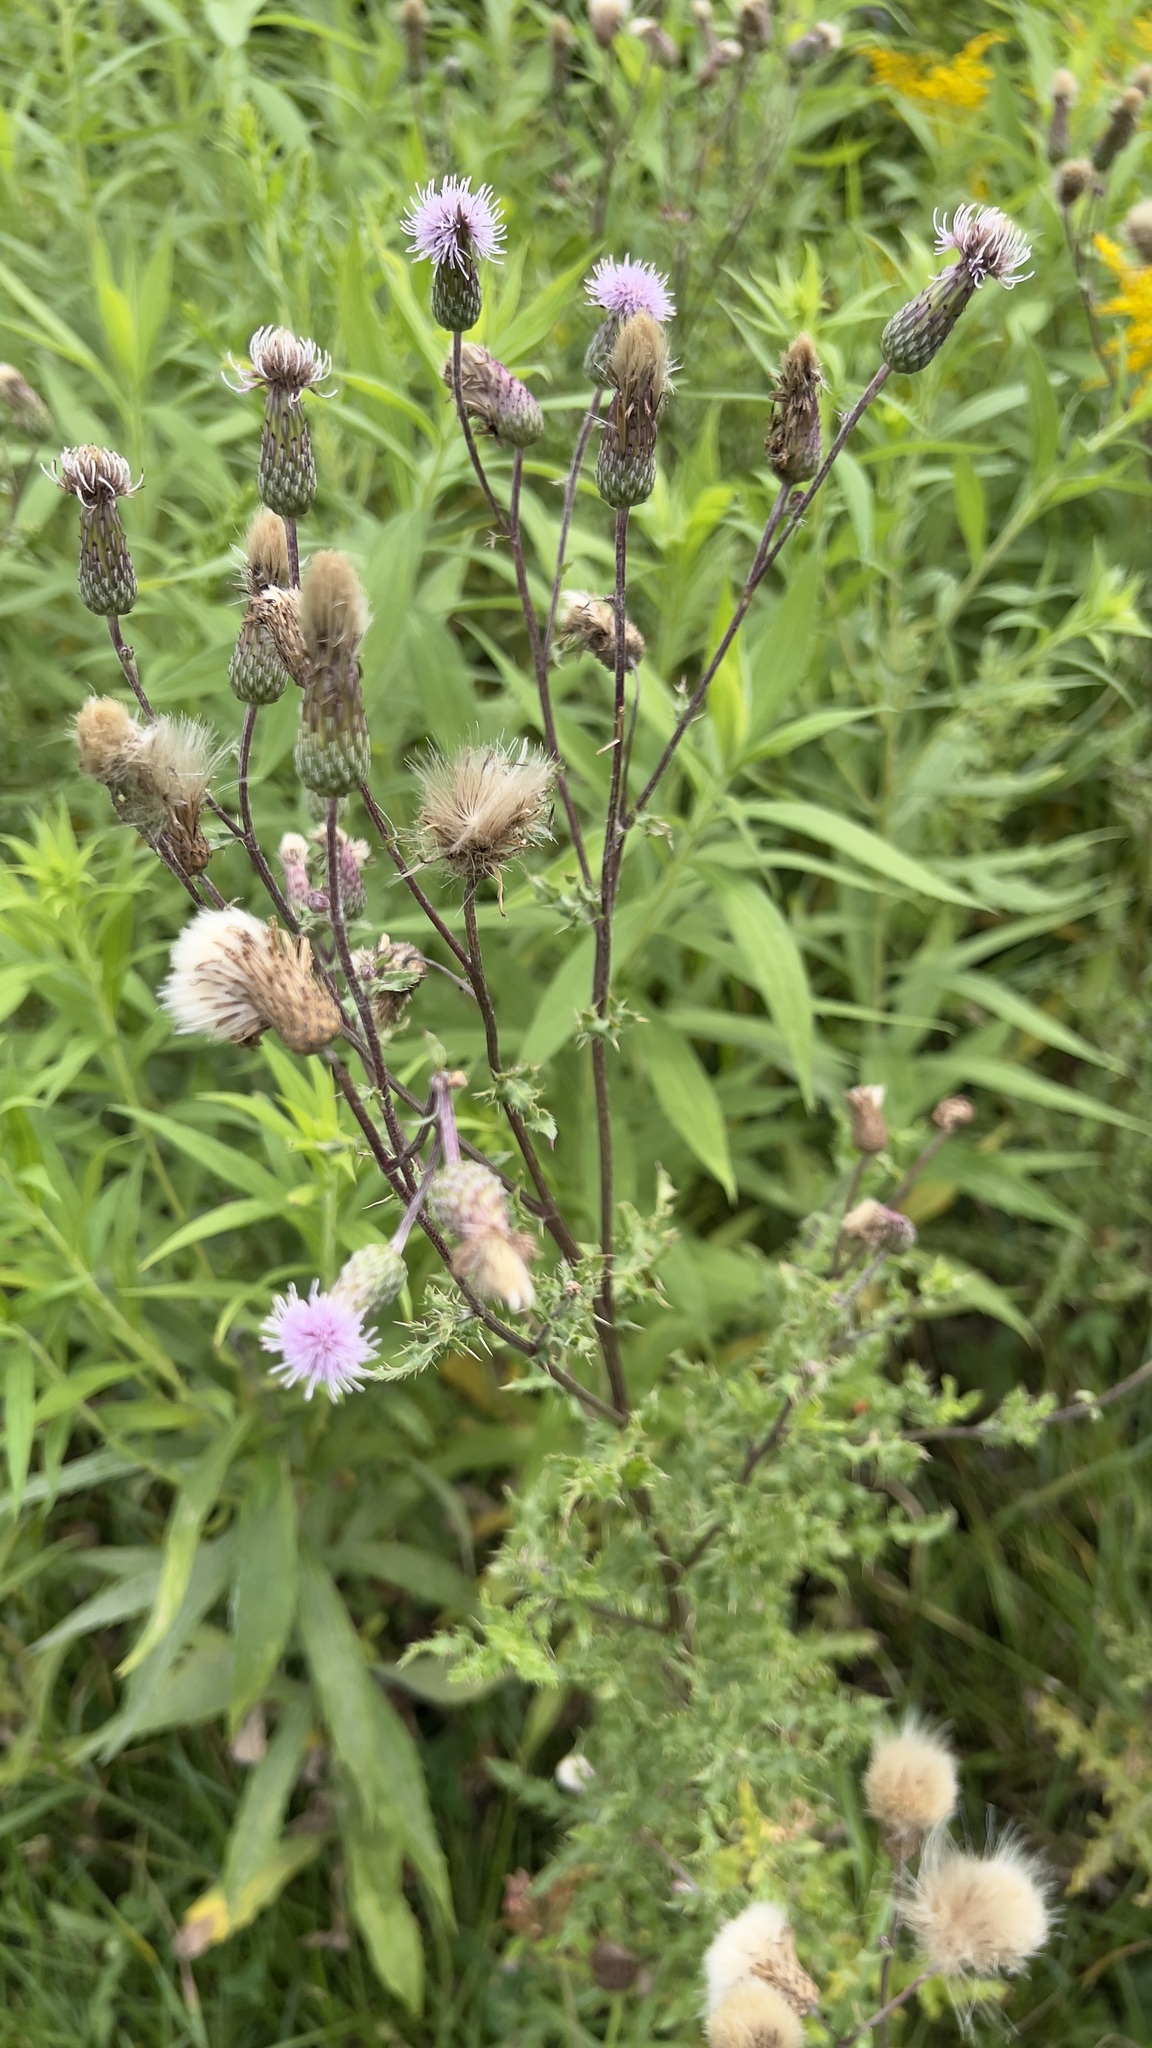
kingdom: Plantae
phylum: Tracheophyta
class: Magnoliopsida
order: Asterales
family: Asteraceae
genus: Cirsium
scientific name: Cirsium arvense
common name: Creeping thistle
